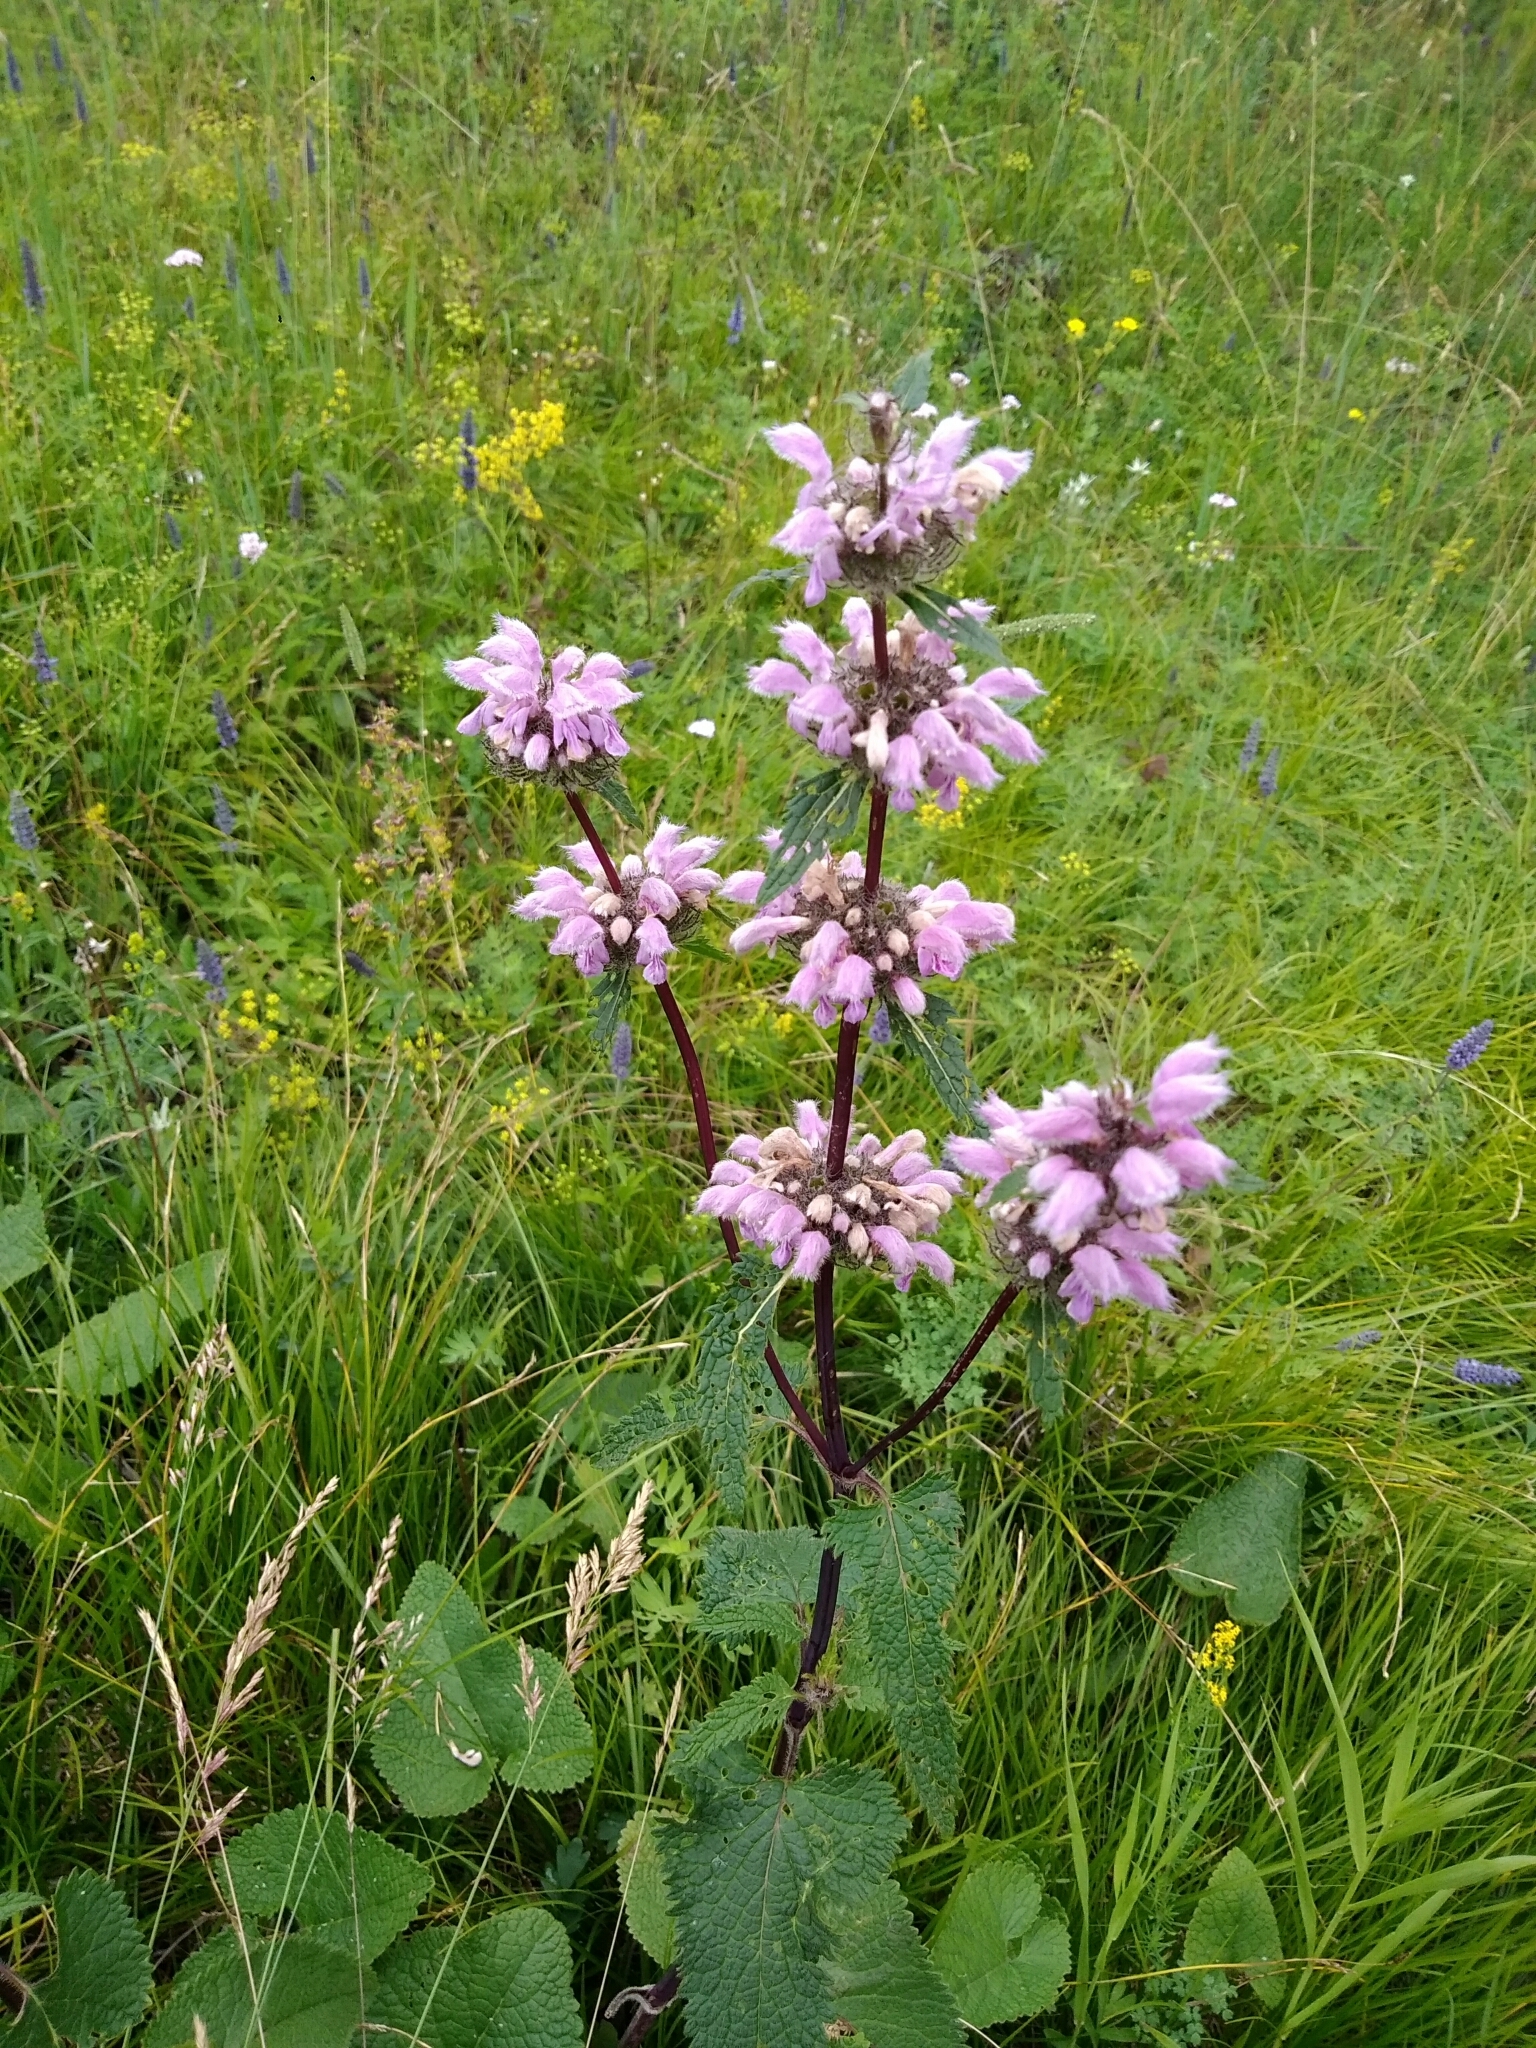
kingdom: Plantae
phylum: Tracheophyta
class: Magnoliopsida
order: Lamiales
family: Lamiaceae
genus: Phlomoides
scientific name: Phlomoides tuberosa
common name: Tuberous jerusalem sage
